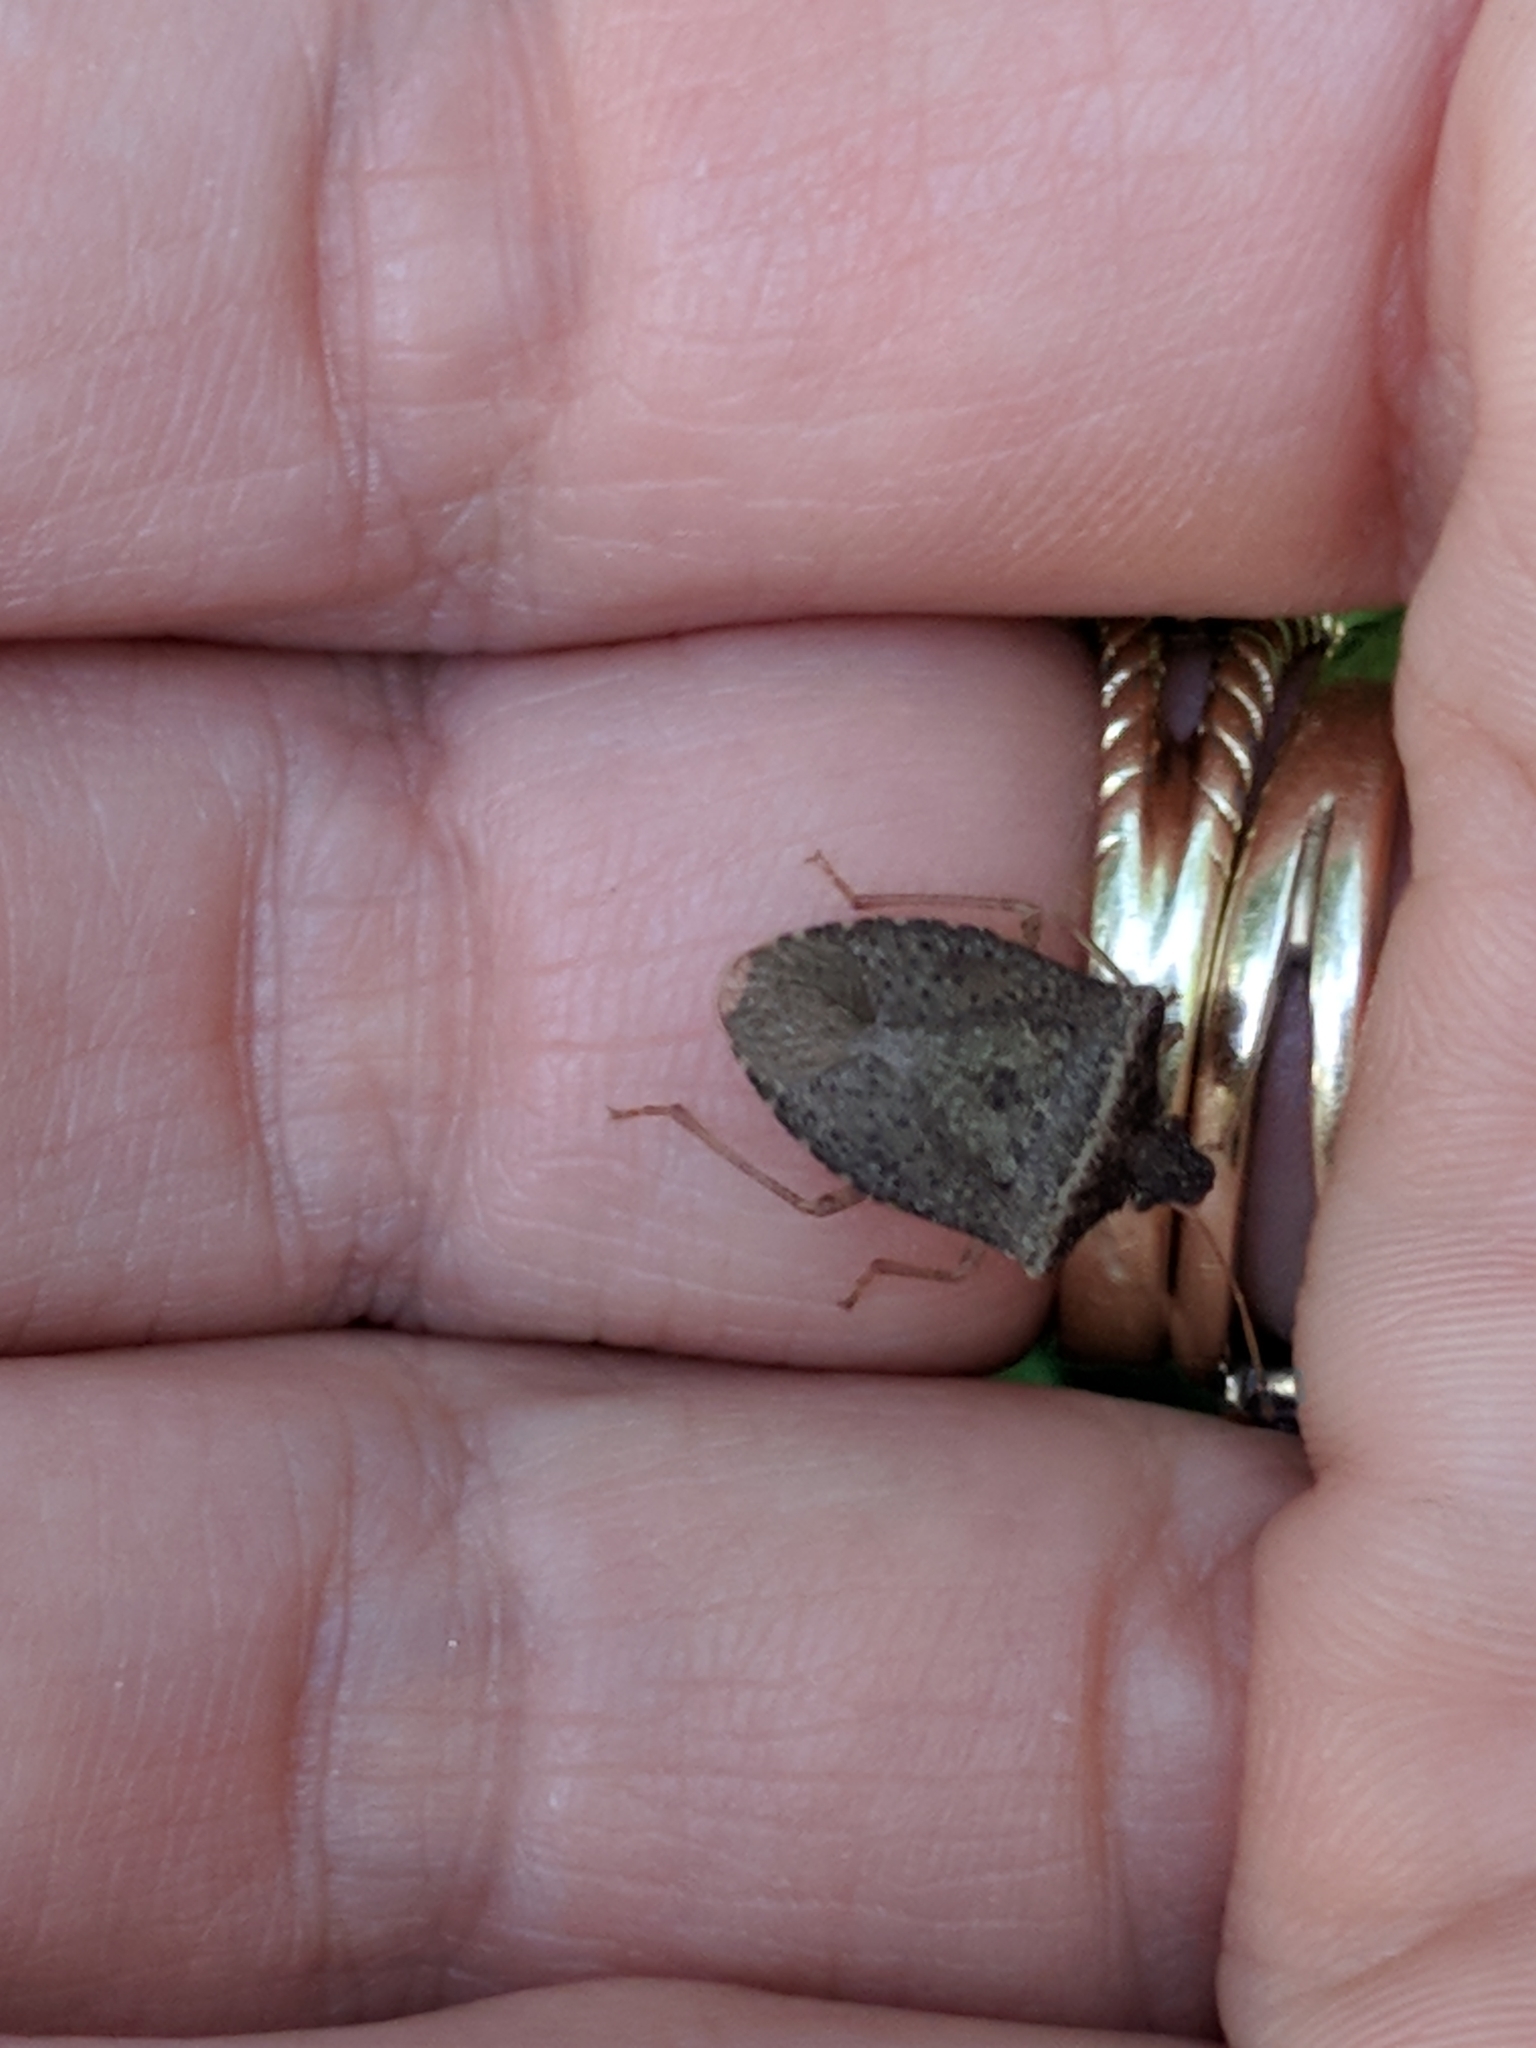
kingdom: Animalia
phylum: Arthropoda
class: Insecta
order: Hemiptera
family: Pentatomidae
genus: Euschistus
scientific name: Euschistus obscurus
